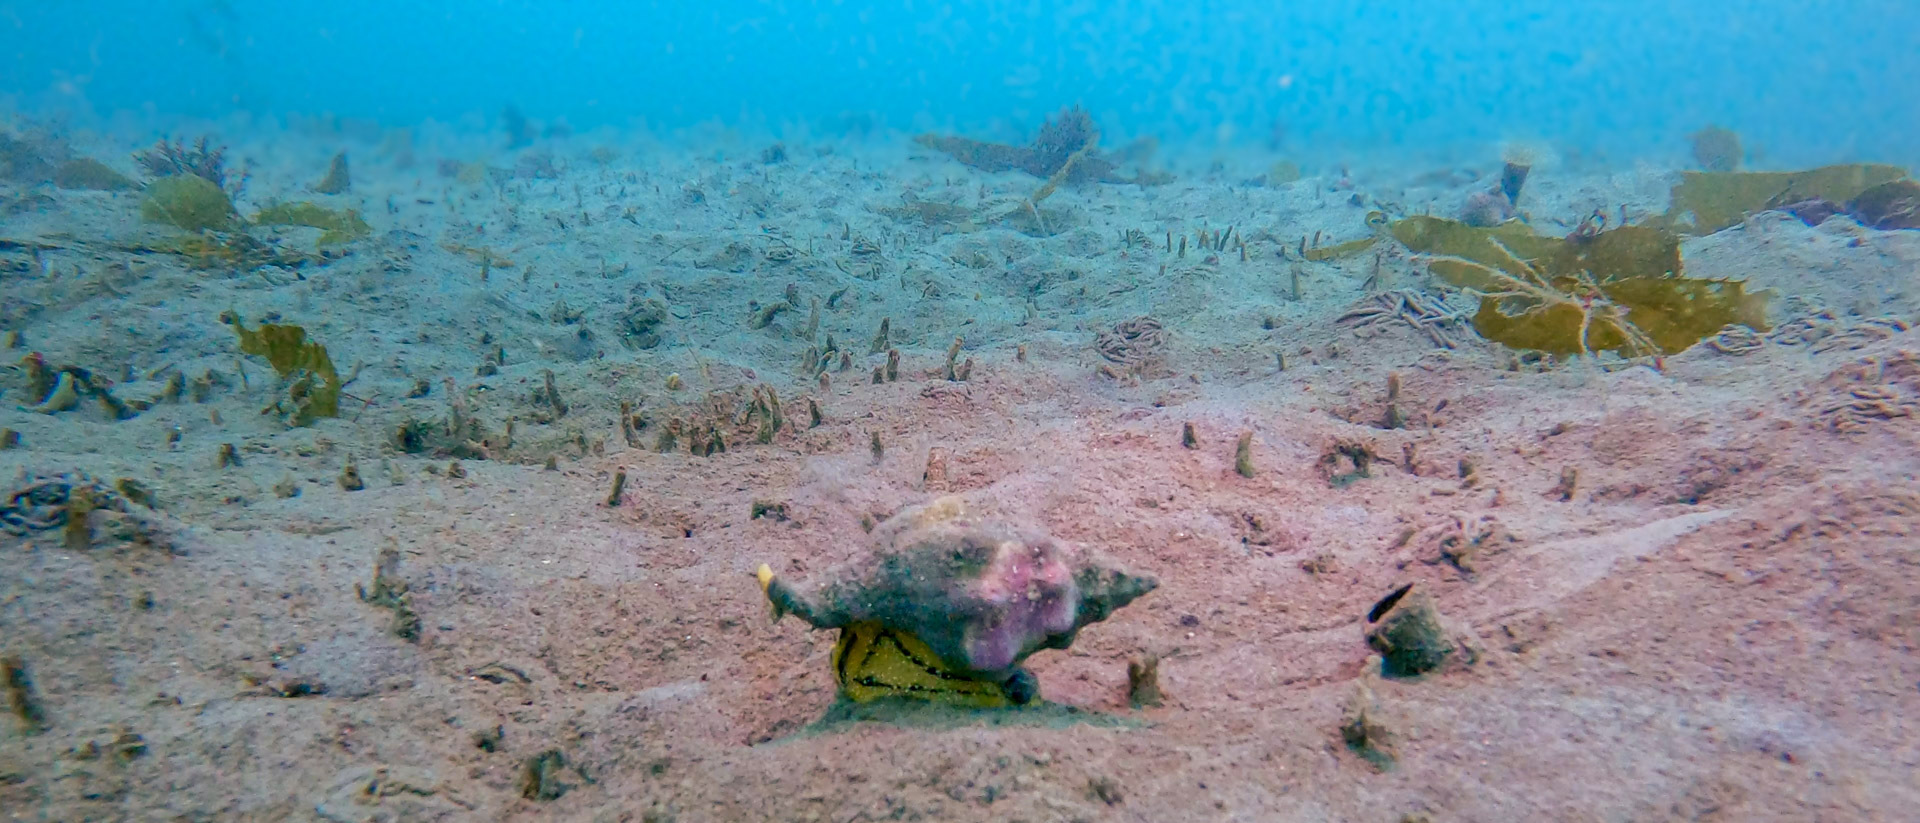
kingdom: Animalia
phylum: Mollusca
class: Gastropoda
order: Neogastropoda
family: Austrosiphonidae
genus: Kelletia
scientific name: Kelletia kelletii
